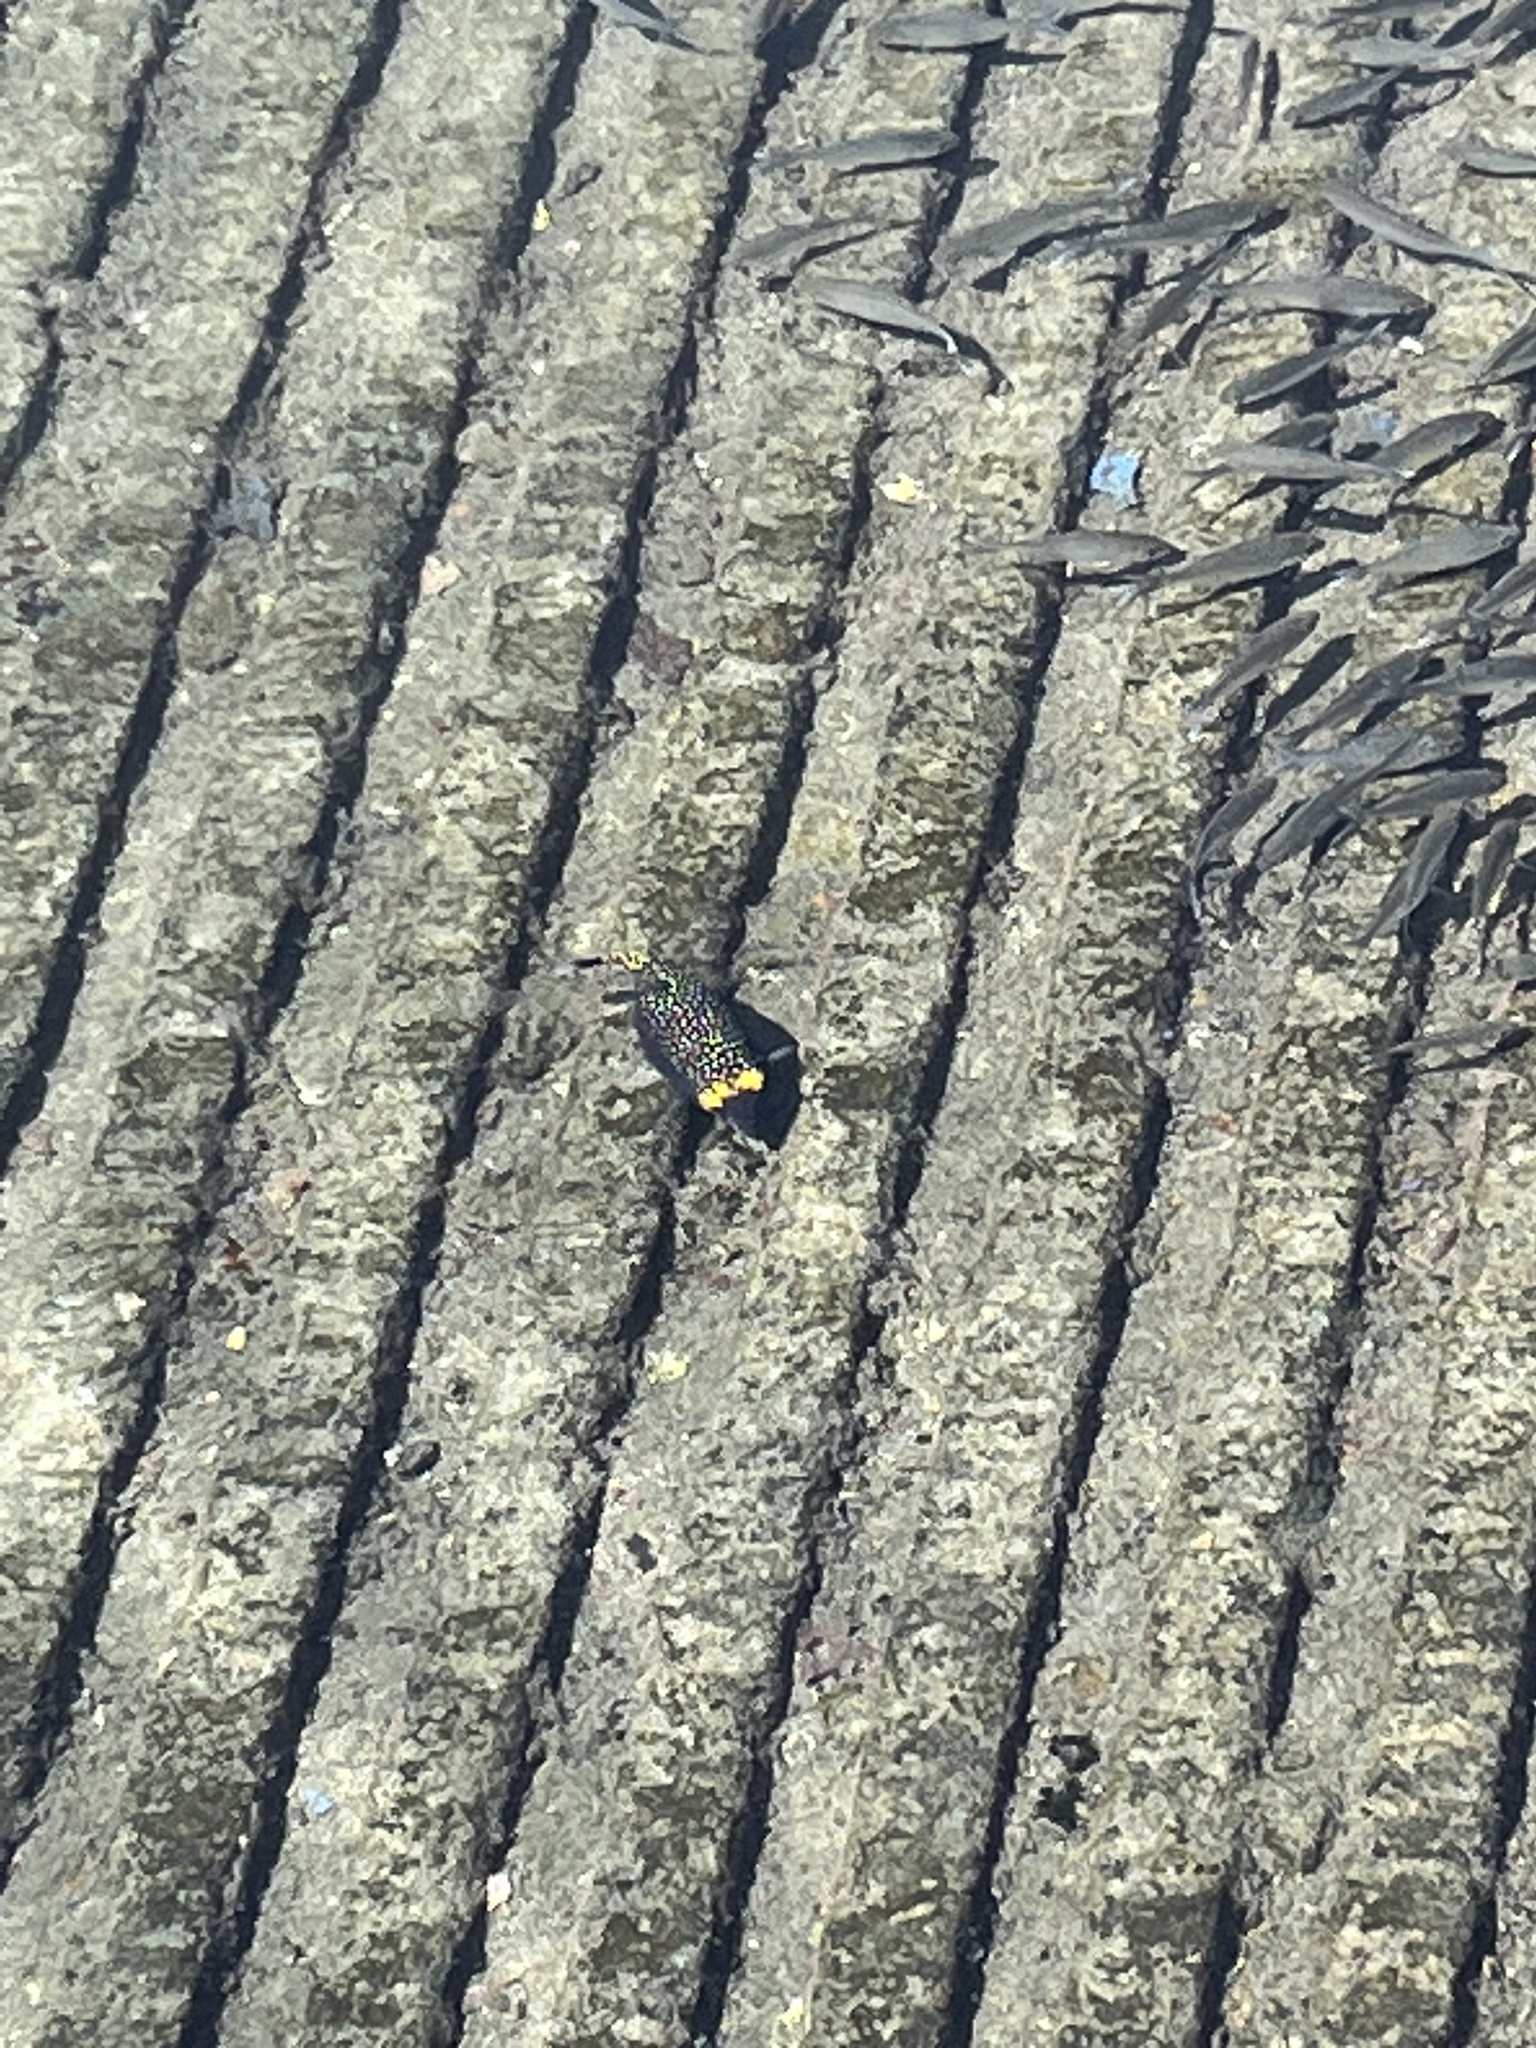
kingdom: Animalia
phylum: Chordata
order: Tetraodontiformes
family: Ostraciidae
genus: Ostracion
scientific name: Ostracion meleagris
